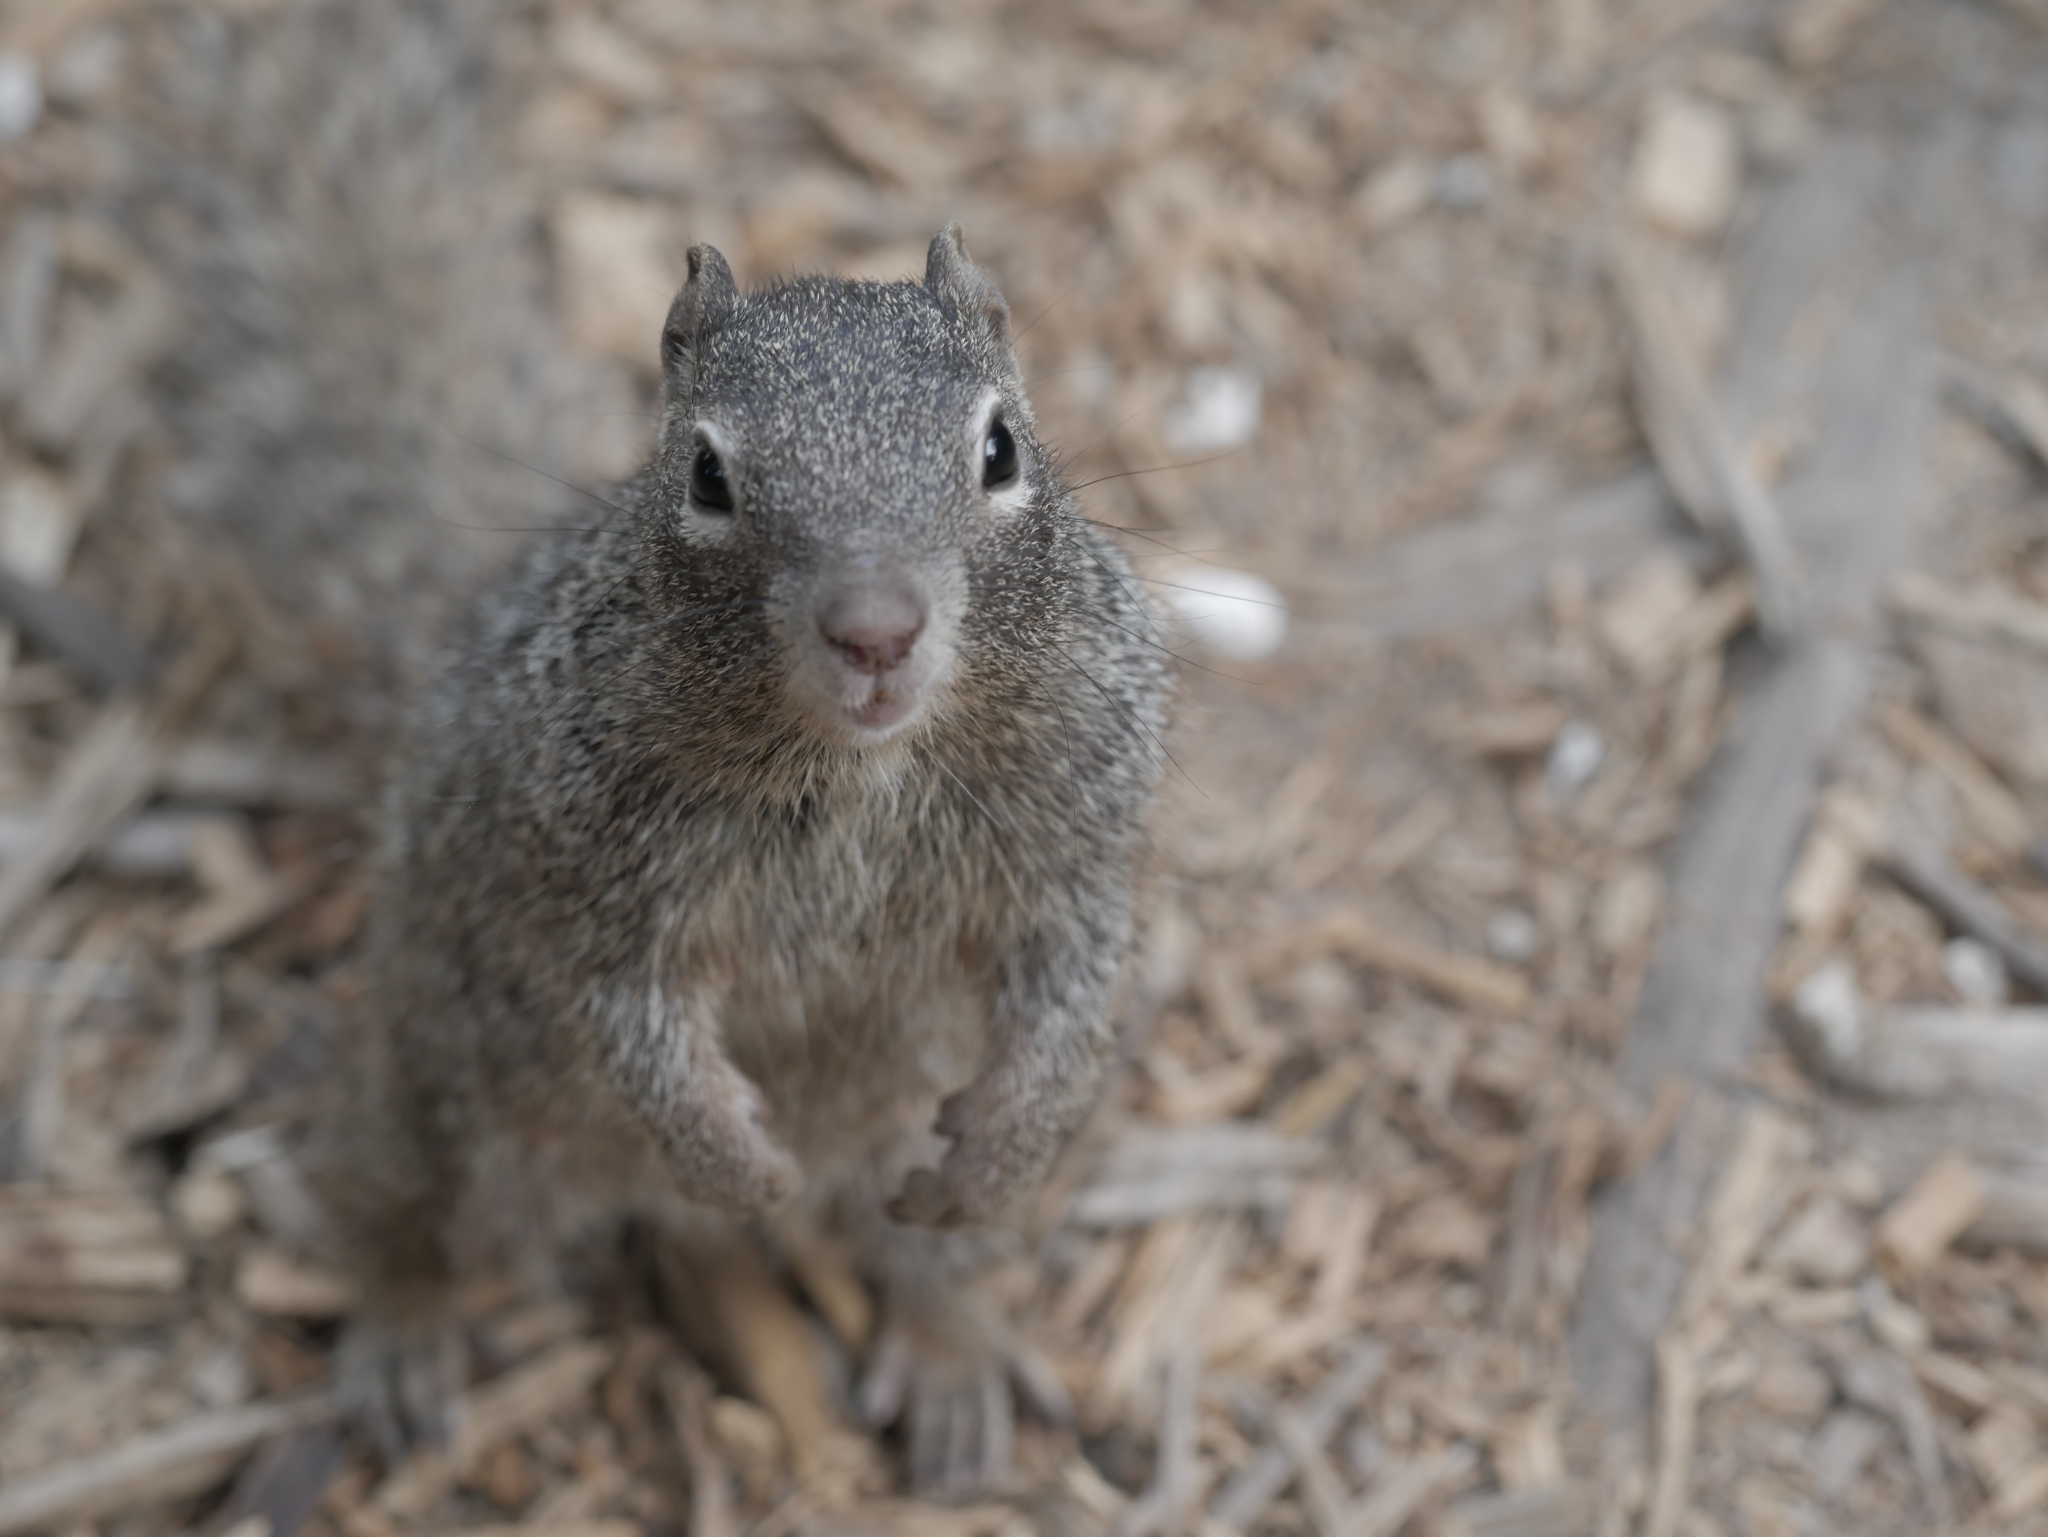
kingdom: Animalia
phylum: Chordata
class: Mammalia
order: Rodentia
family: Sciuridae
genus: Otospermophilus
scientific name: Otospermophilus variegatus
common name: Rock squirrel
